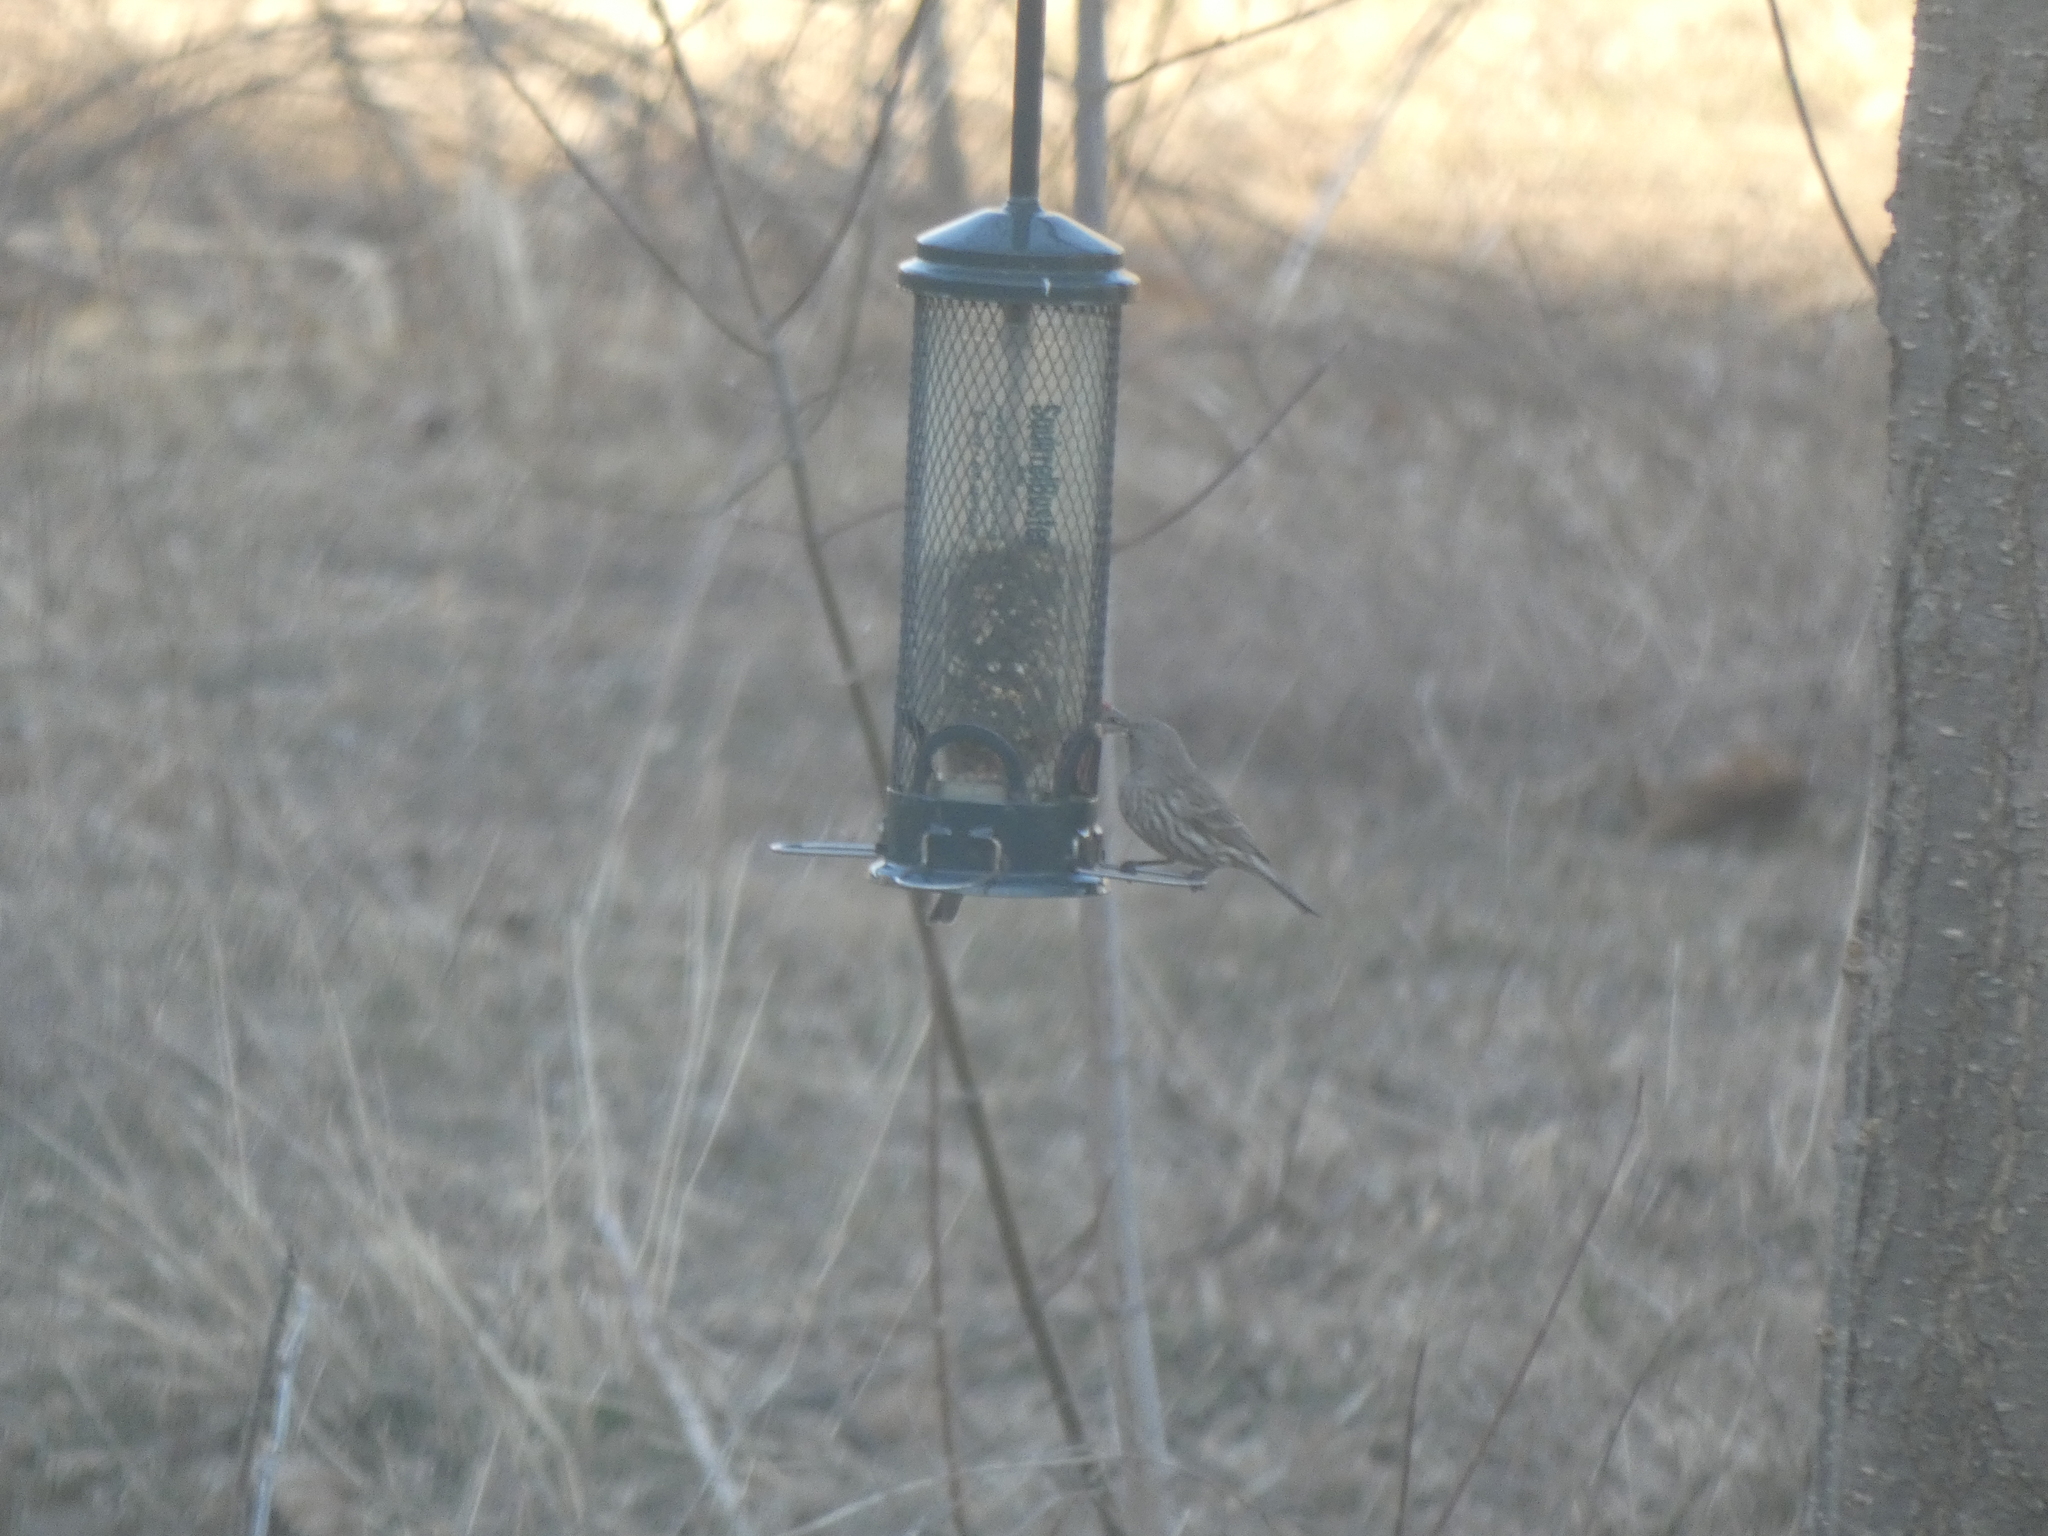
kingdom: Animalia
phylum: Chordata
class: Aves
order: Passeriformes
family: Fringillidae
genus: Haemorhous
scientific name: Haemorhous mexicanus
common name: House finch
